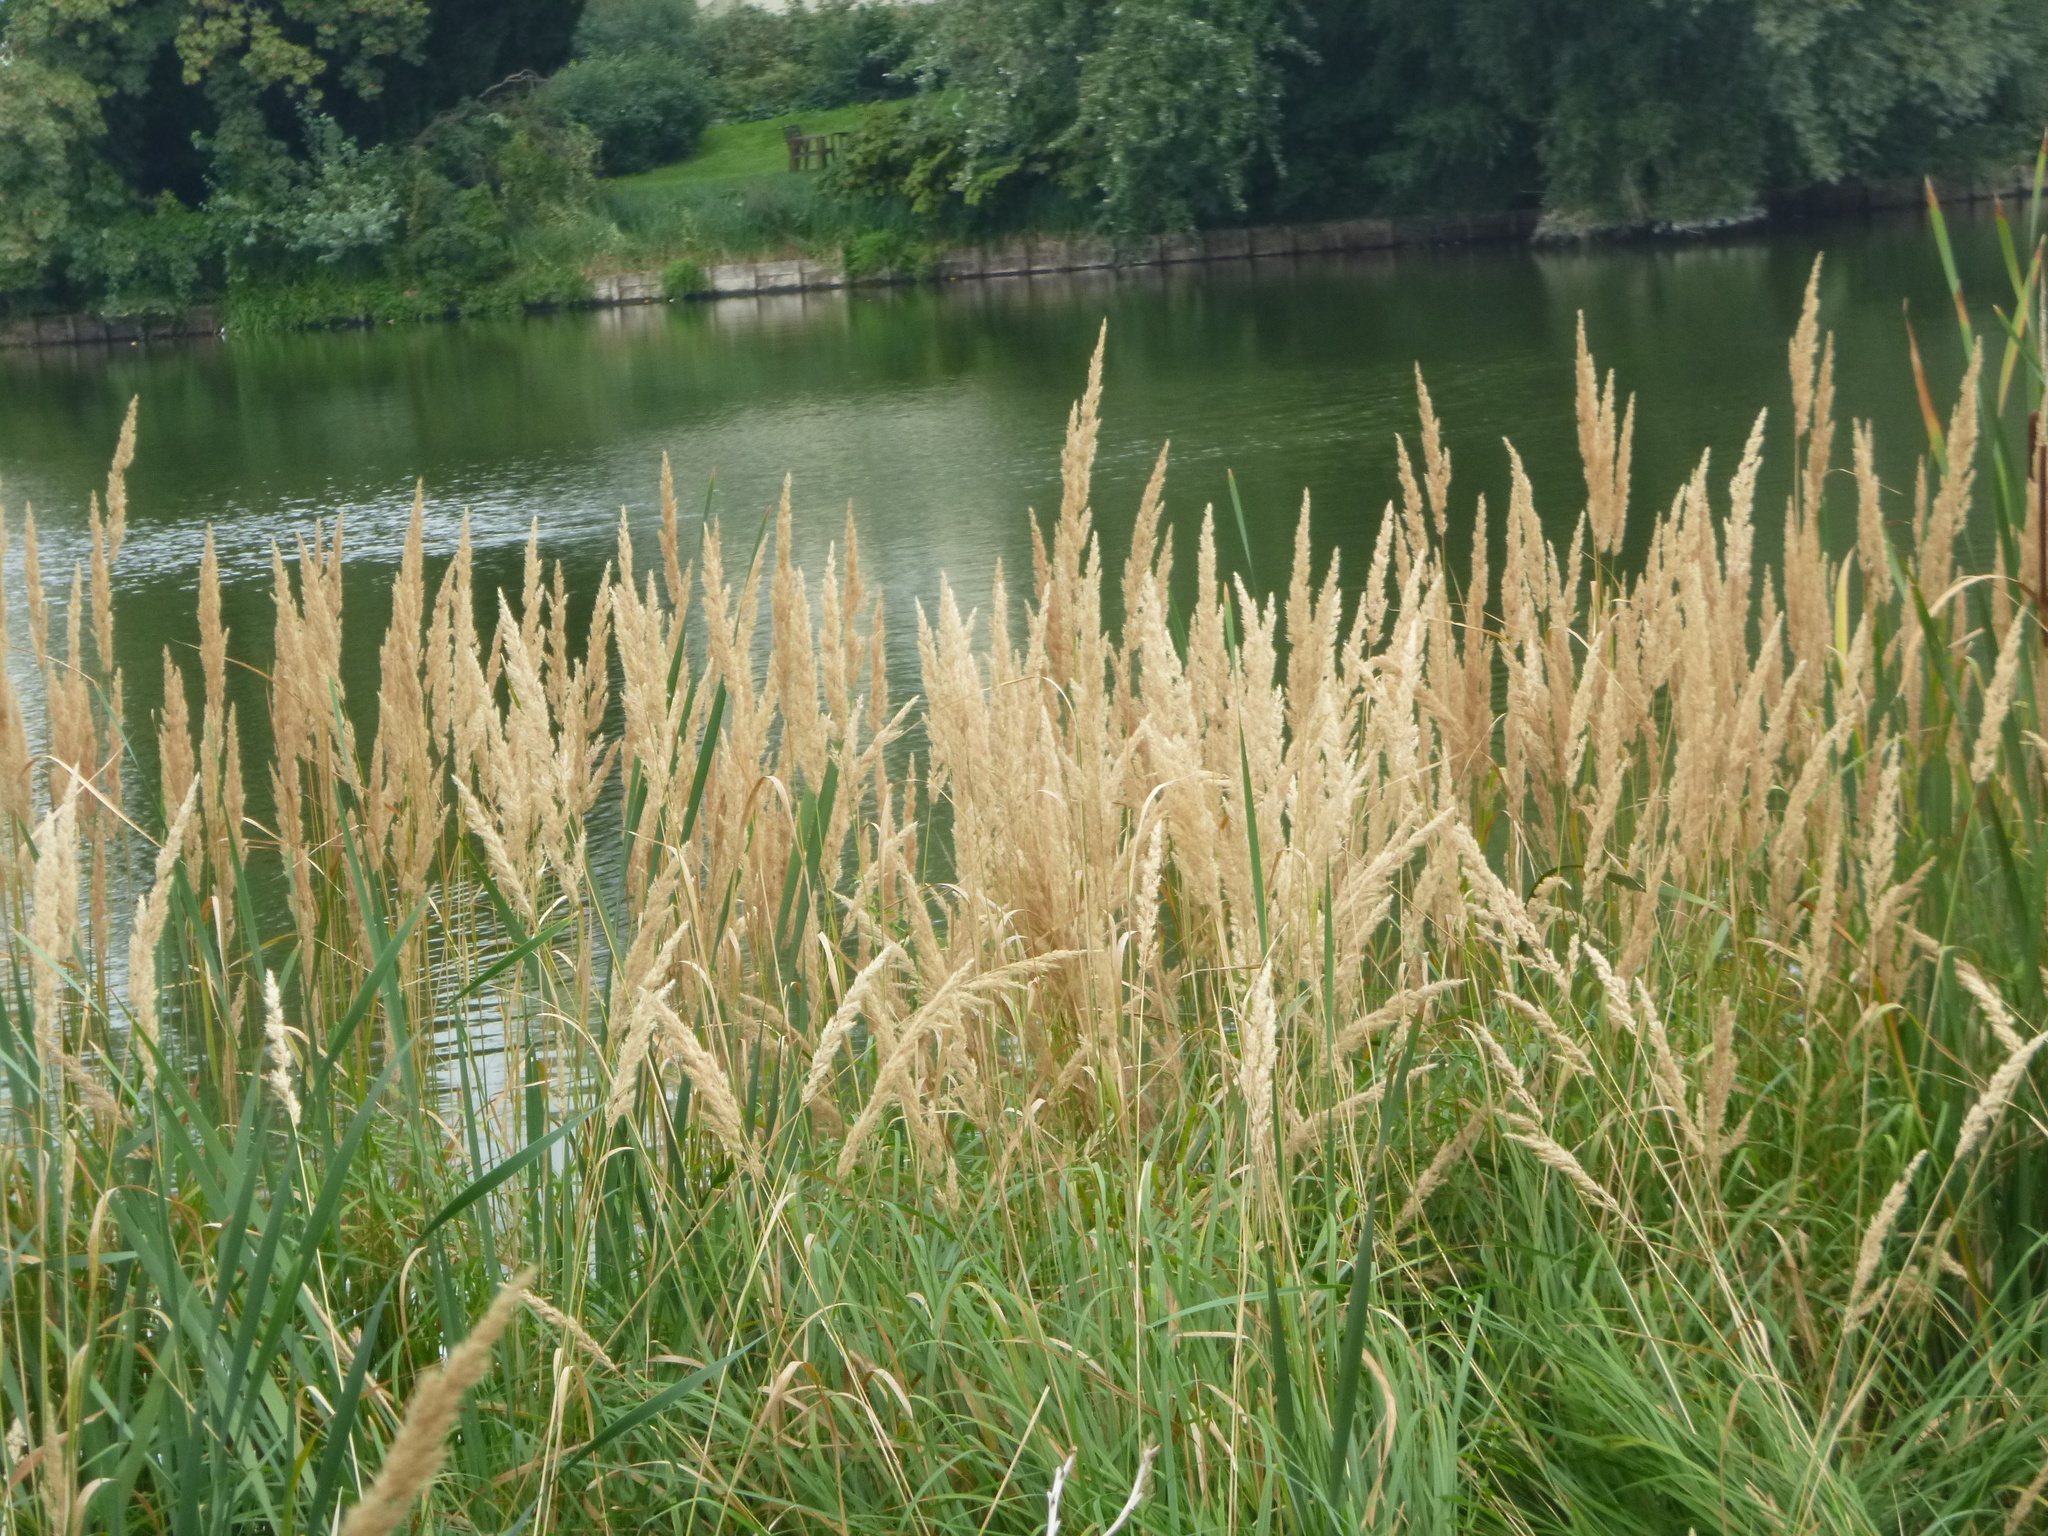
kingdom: Plantae
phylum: Tracheophyta
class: Liliopsida
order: Poales
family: Poaceae
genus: Calamagrostis
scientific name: Calamagrostis epigejos
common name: Wood small-reed
